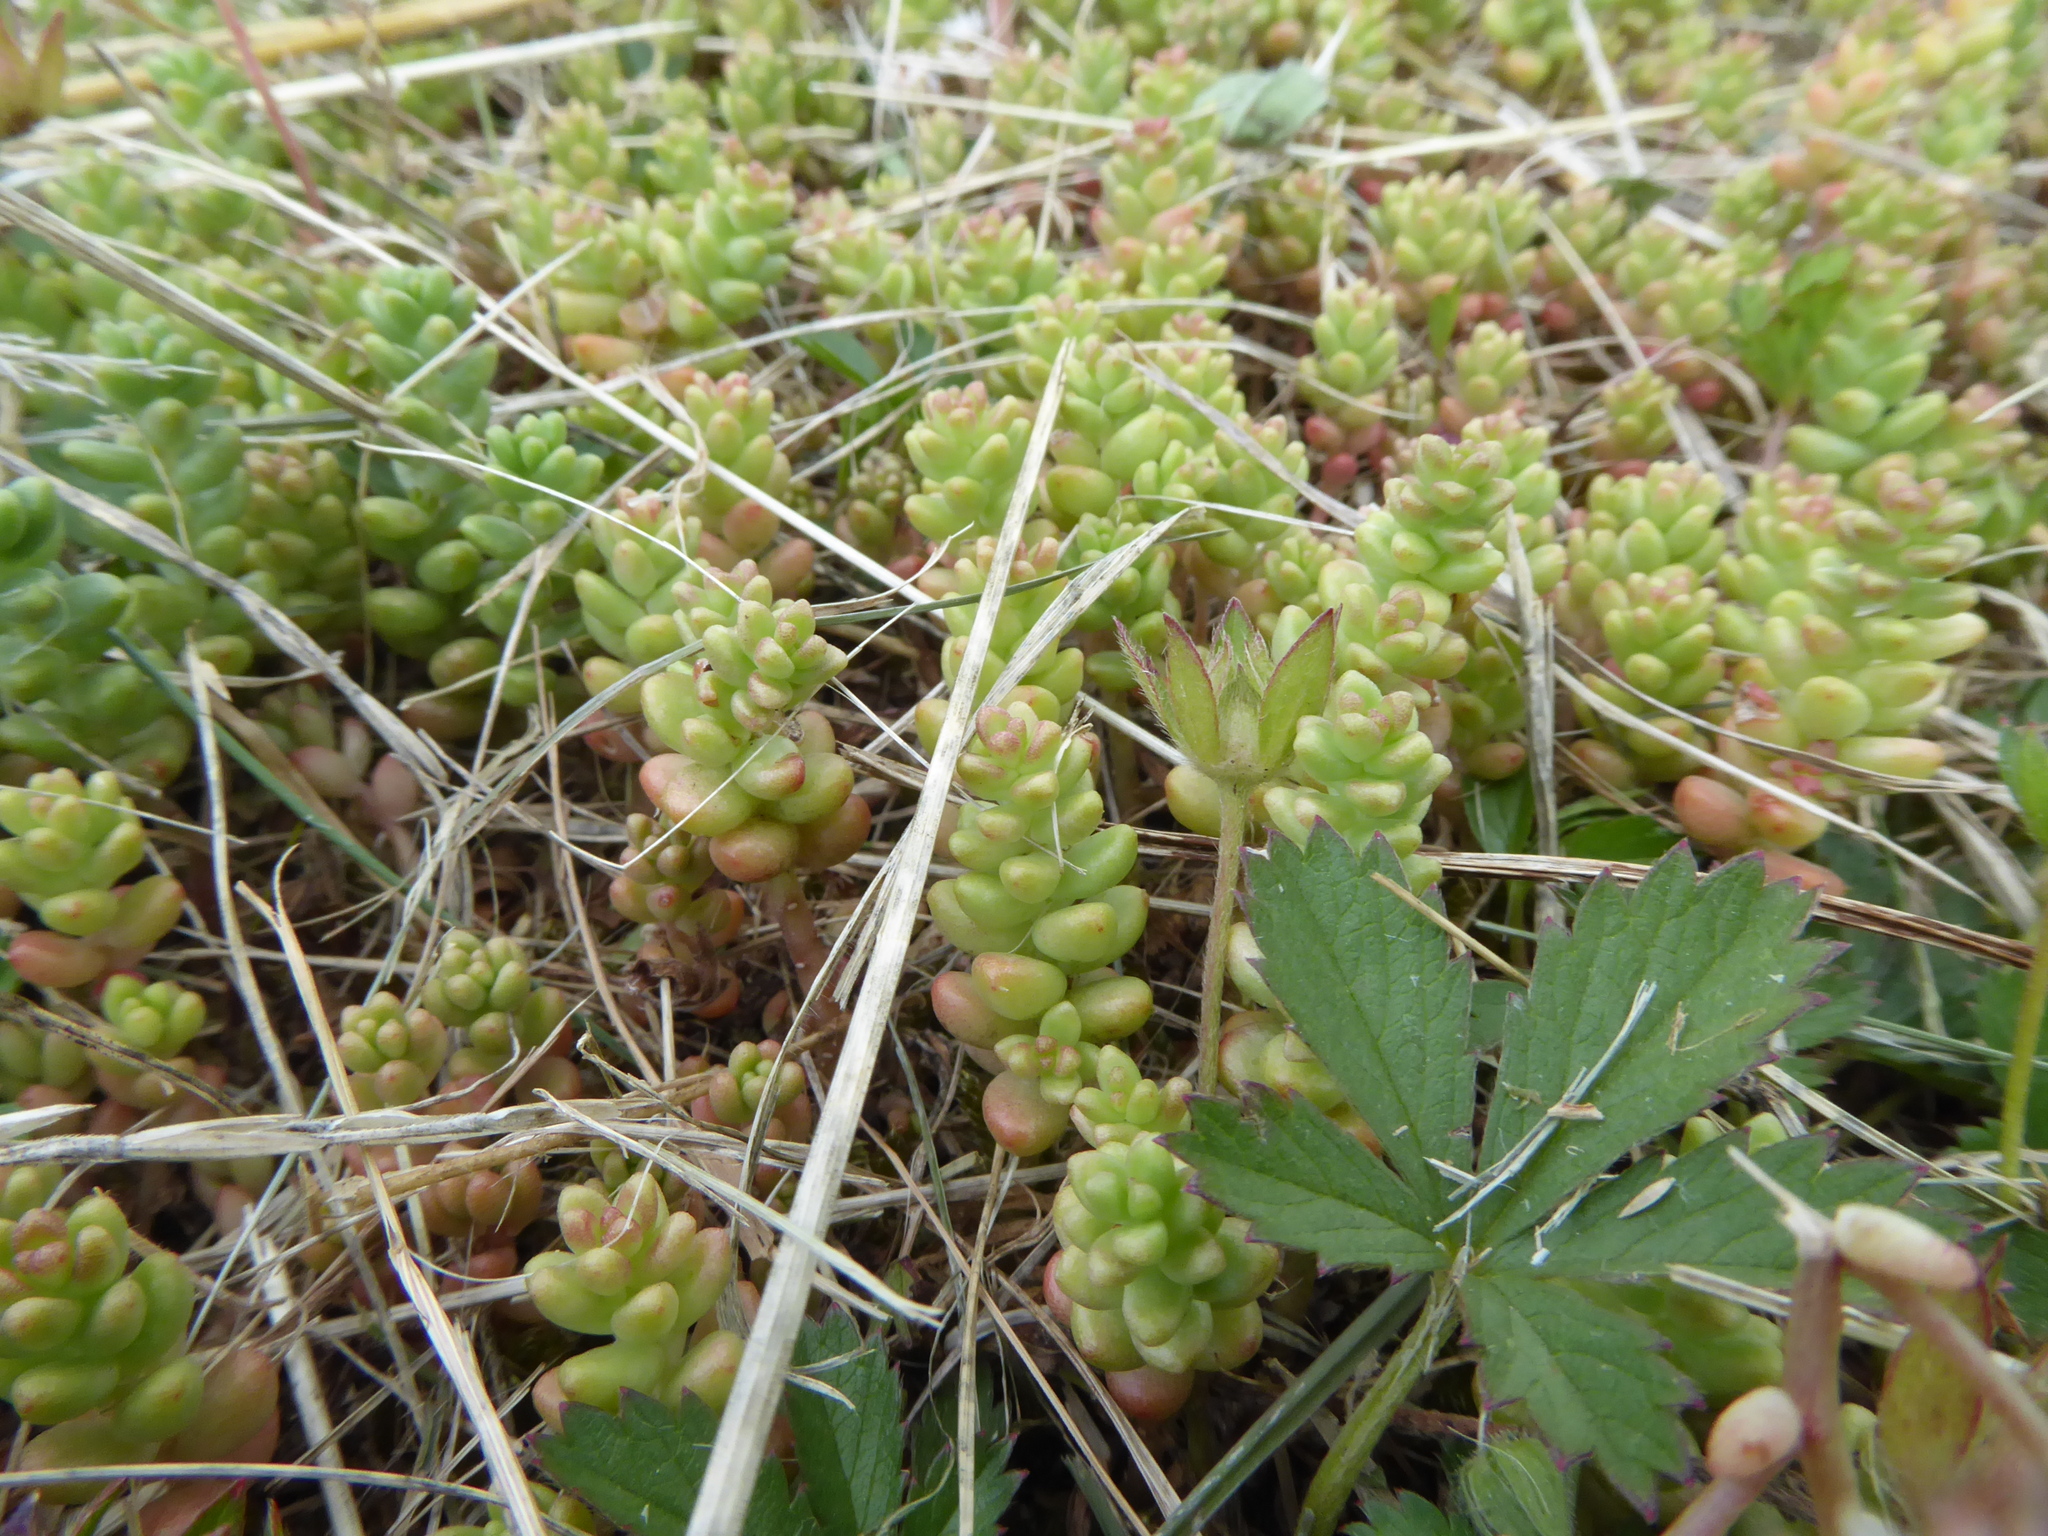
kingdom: Plantae
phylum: Tracheophyta
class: Magnoliopsida
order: Saxifragales
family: Crassulaceae
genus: Sedum
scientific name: Sedum album
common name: White stonecrop
